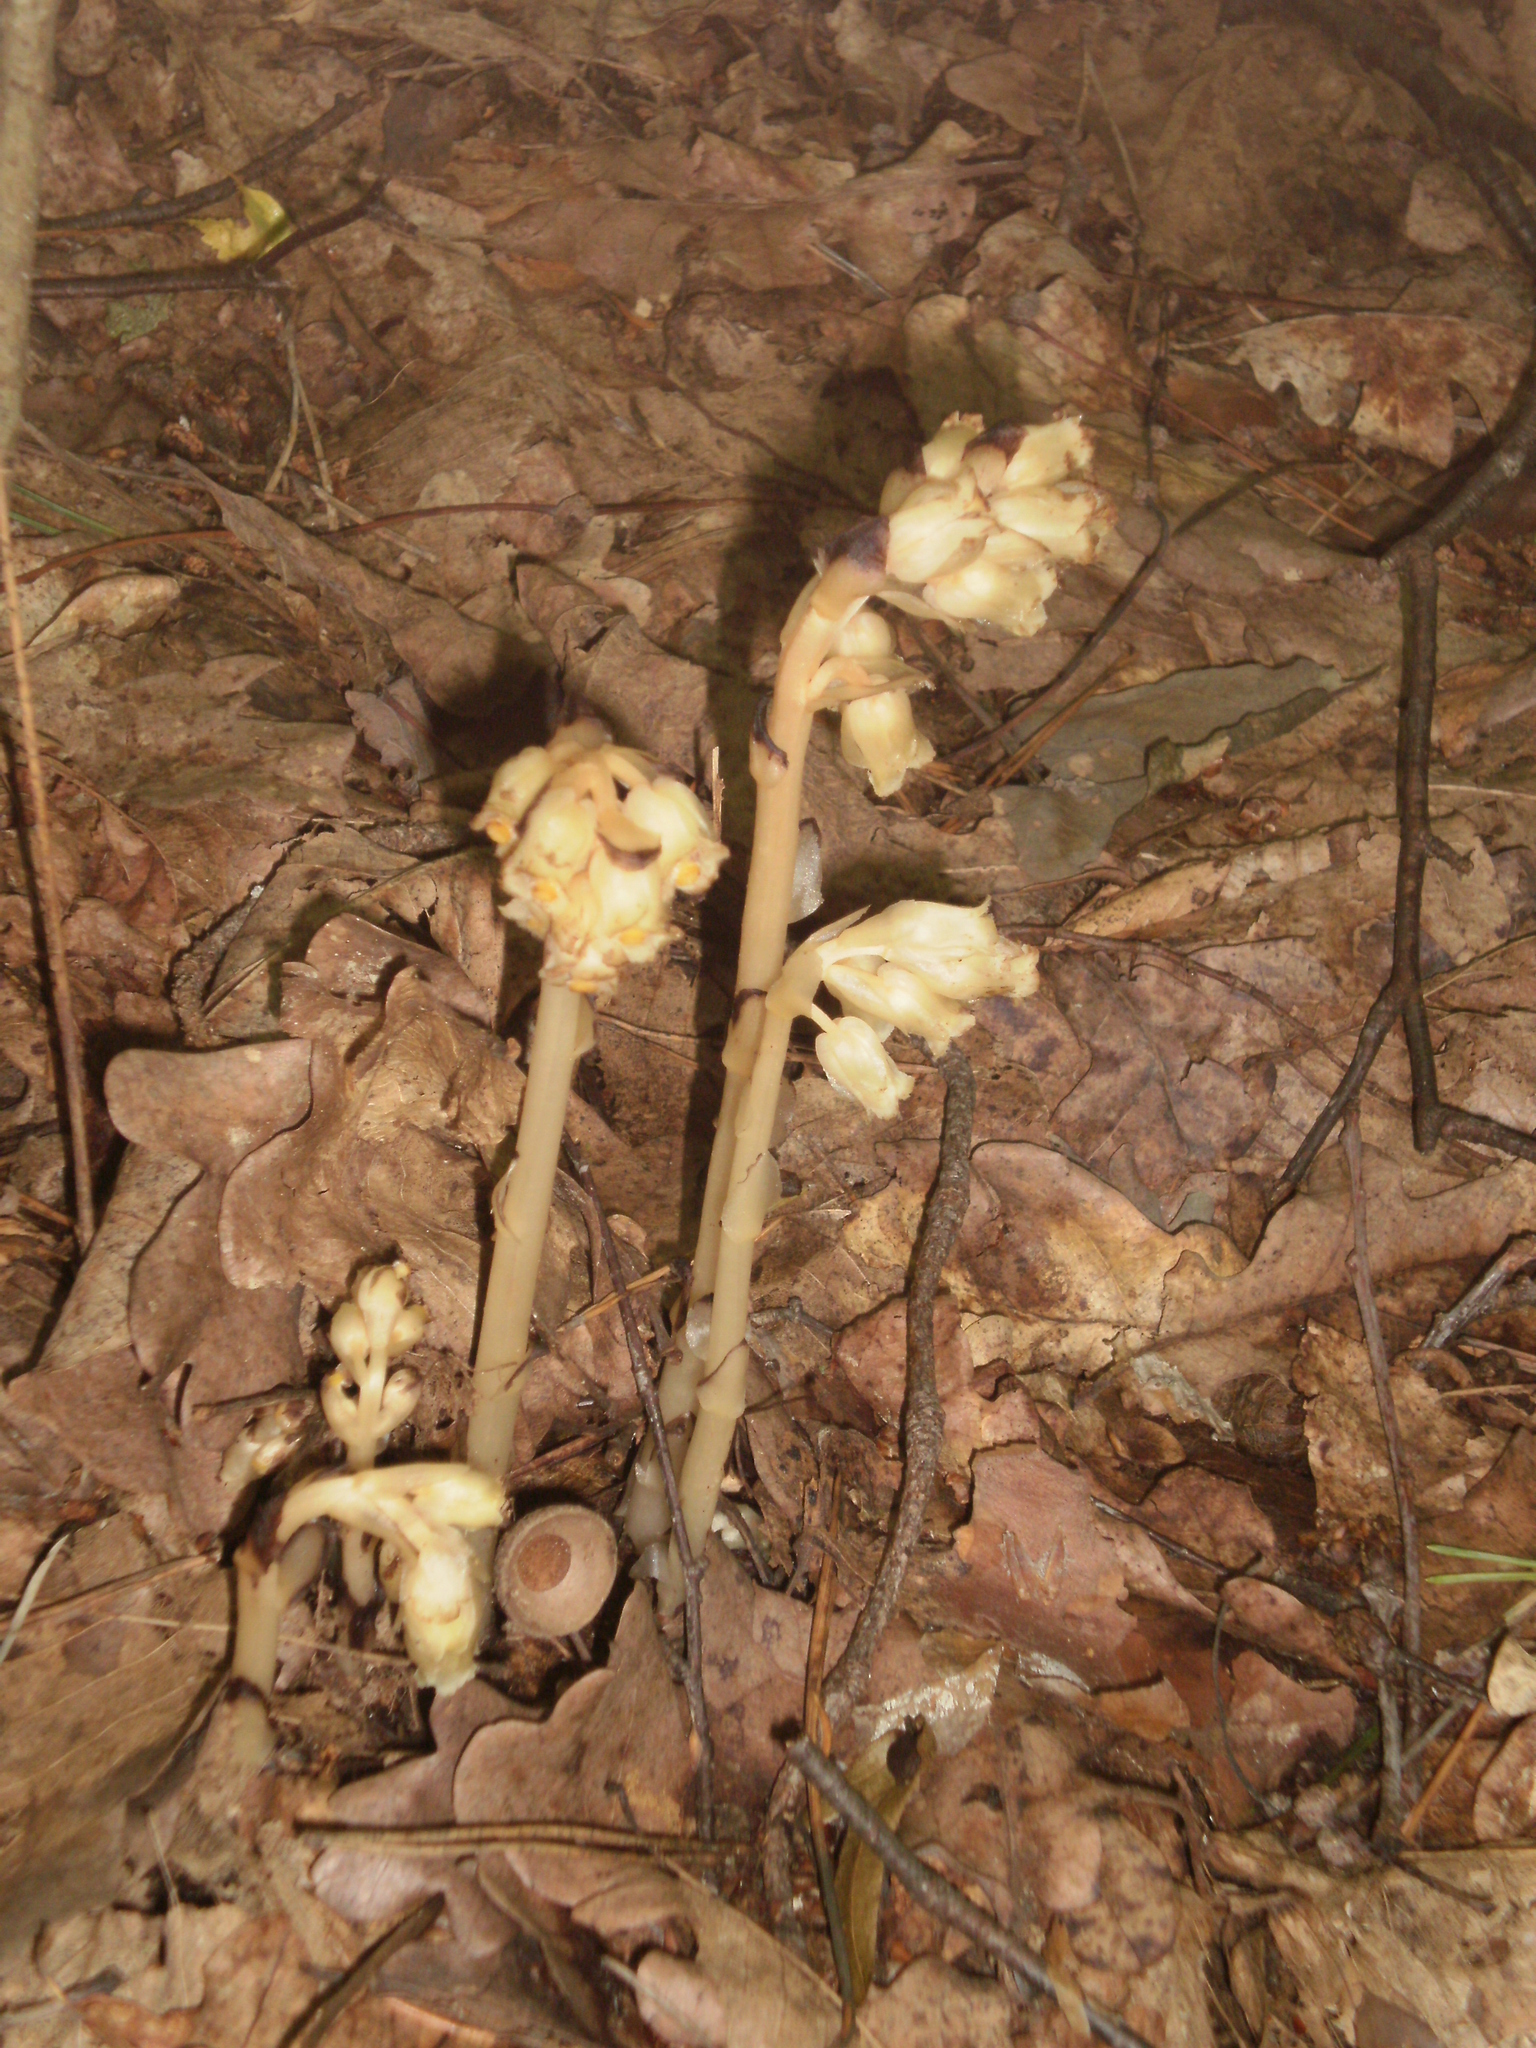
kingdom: Plantae
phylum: Tracheophyta
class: Magnoliopsida
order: Ericales
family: Ericaceae
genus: Hypopitys
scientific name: Hypopitys monotropa
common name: Yellow bird's-nest
